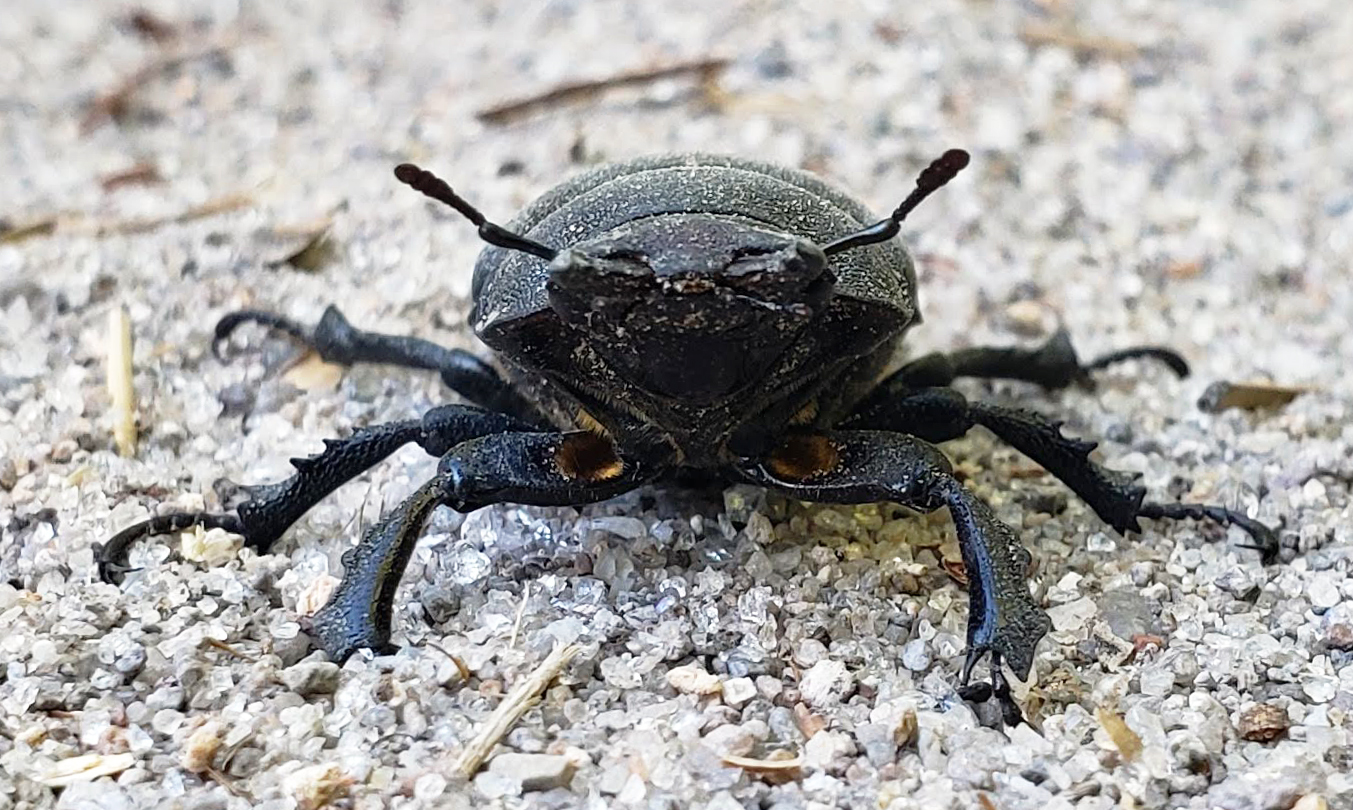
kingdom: Animalia
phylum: Arthropoda
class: Insecta
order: Coleoptera
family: Lucanidae
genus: Lucanus
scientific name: Lucanus mazama
